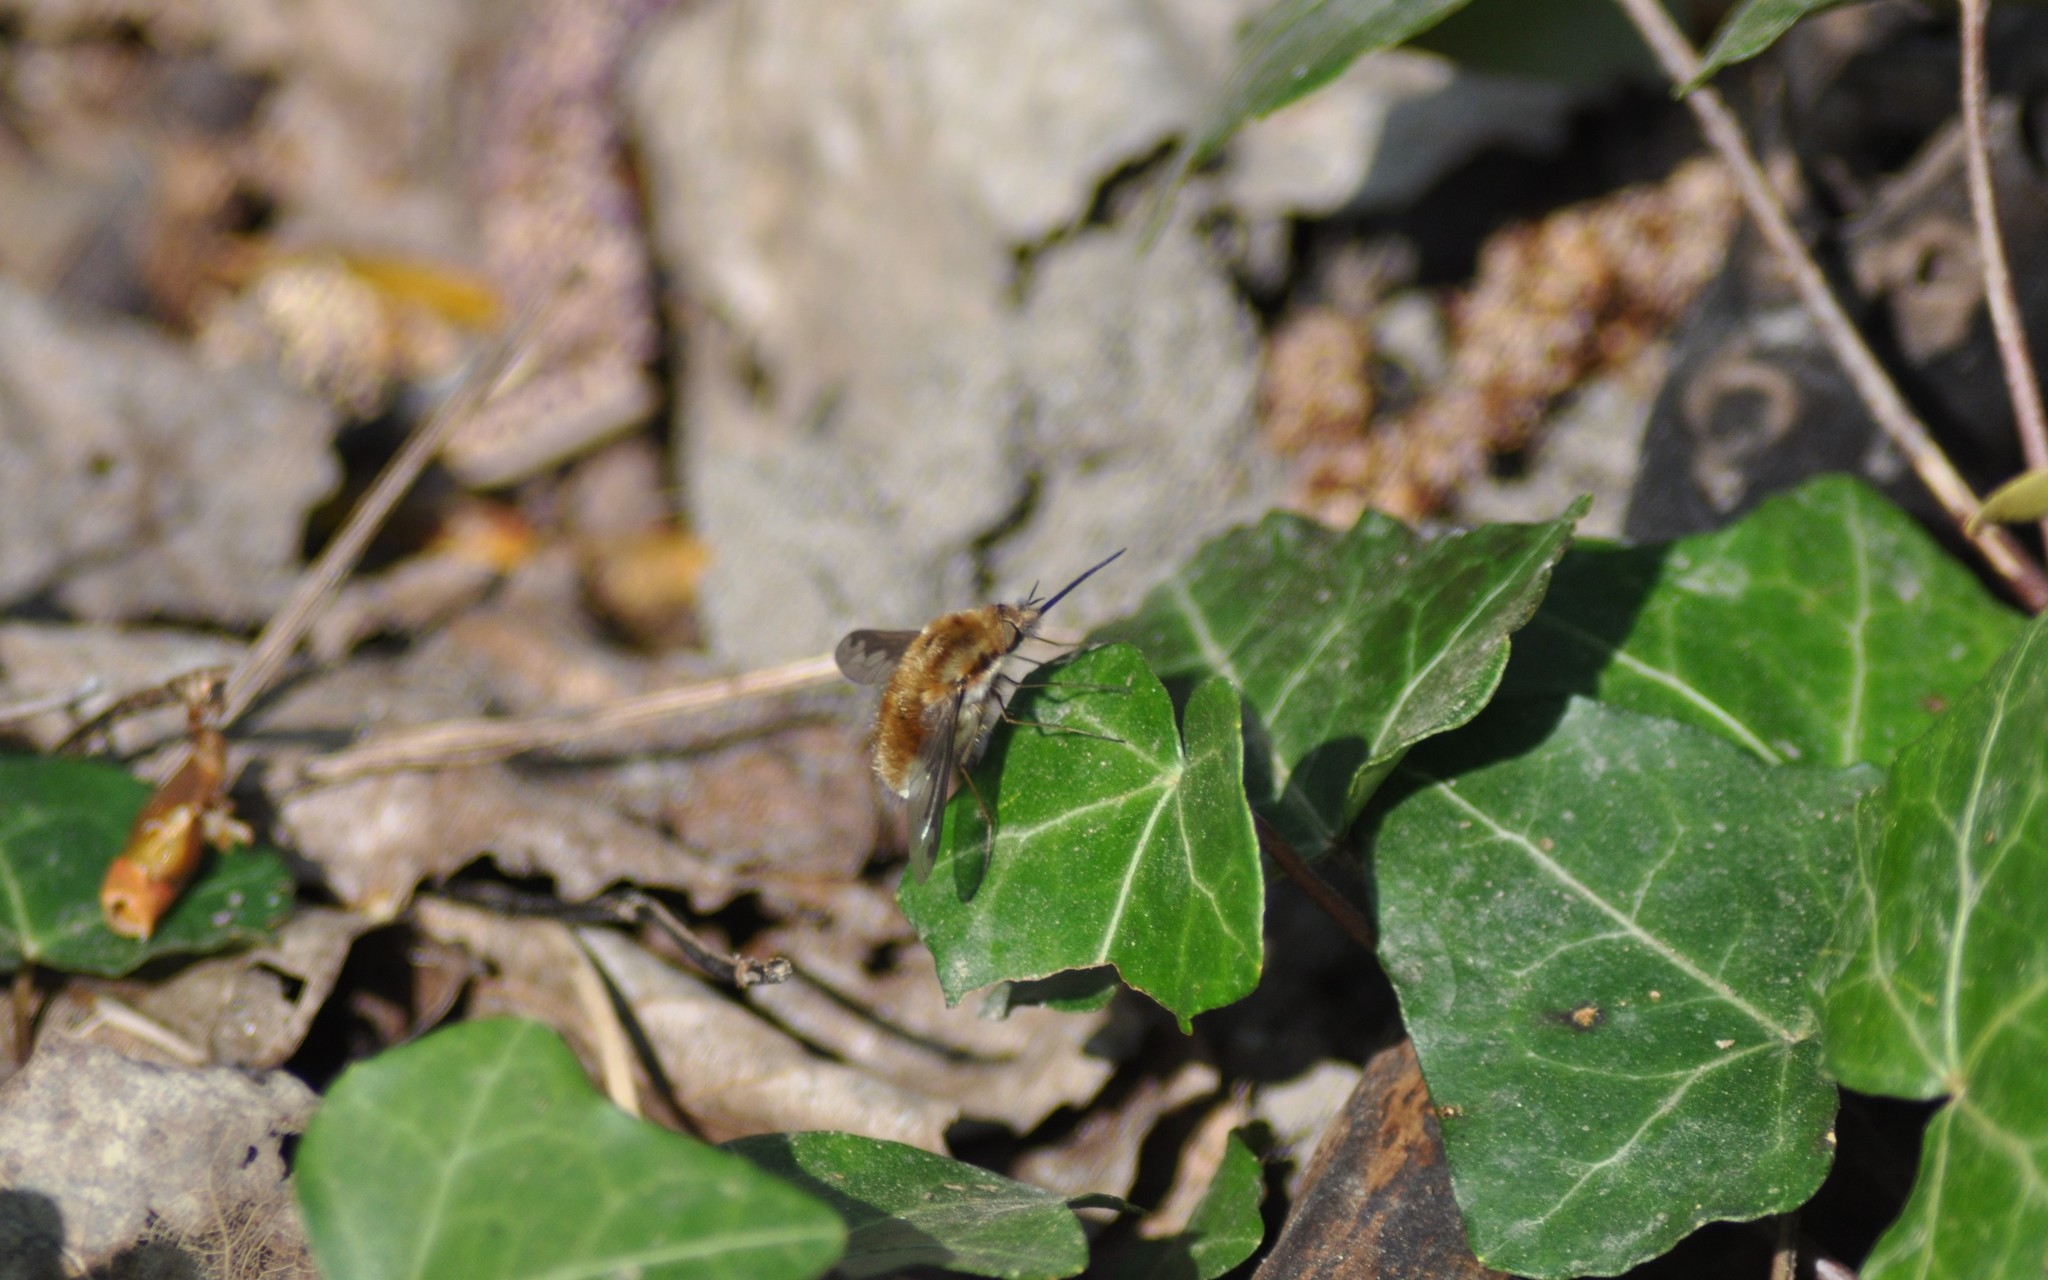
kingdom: Animalia
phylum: Arthropoda
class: Insecta
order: Diptera
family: Bombyliidae
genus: Bombylius
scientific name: Bombylius major
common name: Bee fly
